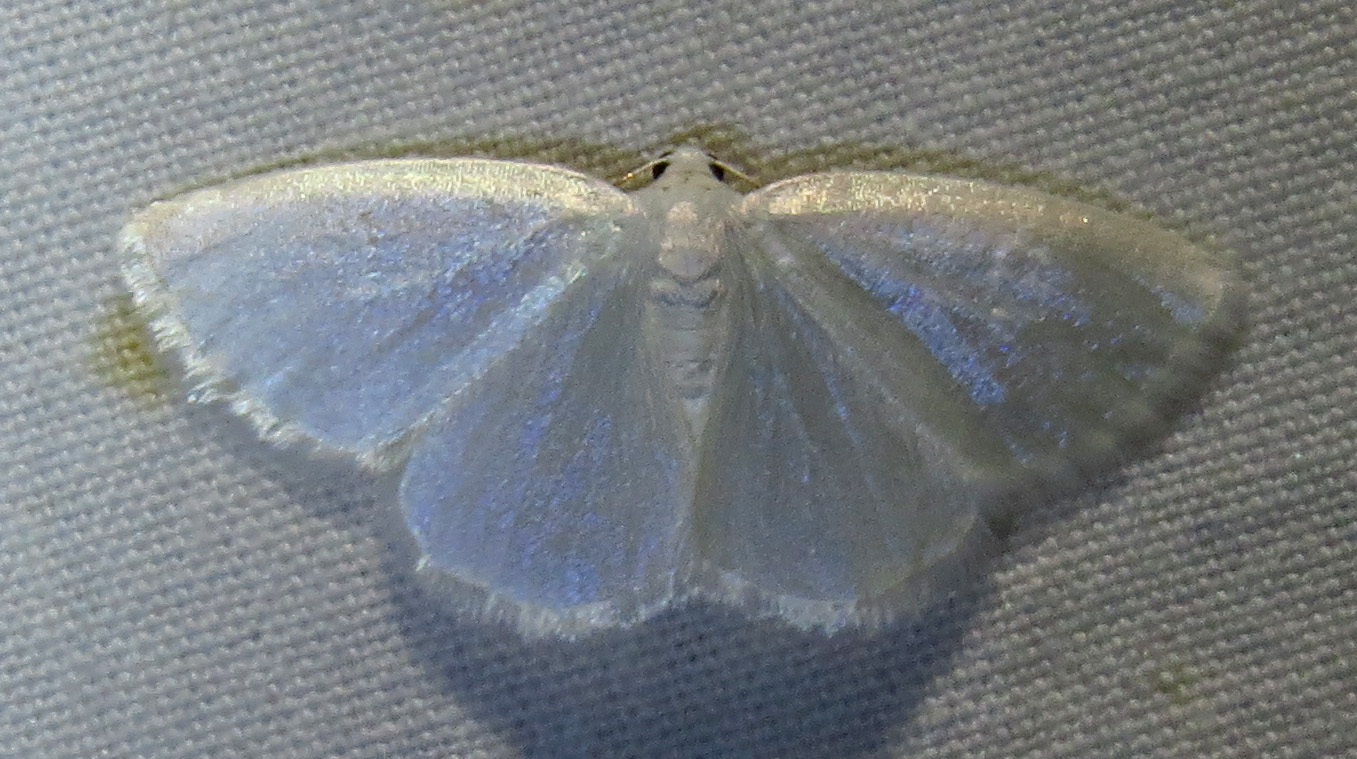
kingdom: Animalia
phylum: Arthropoda
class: Insecta
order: Lepidoptera
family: Geometridae
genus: Lomographa
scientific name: Lomographa vestaliata
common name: White spring moth
